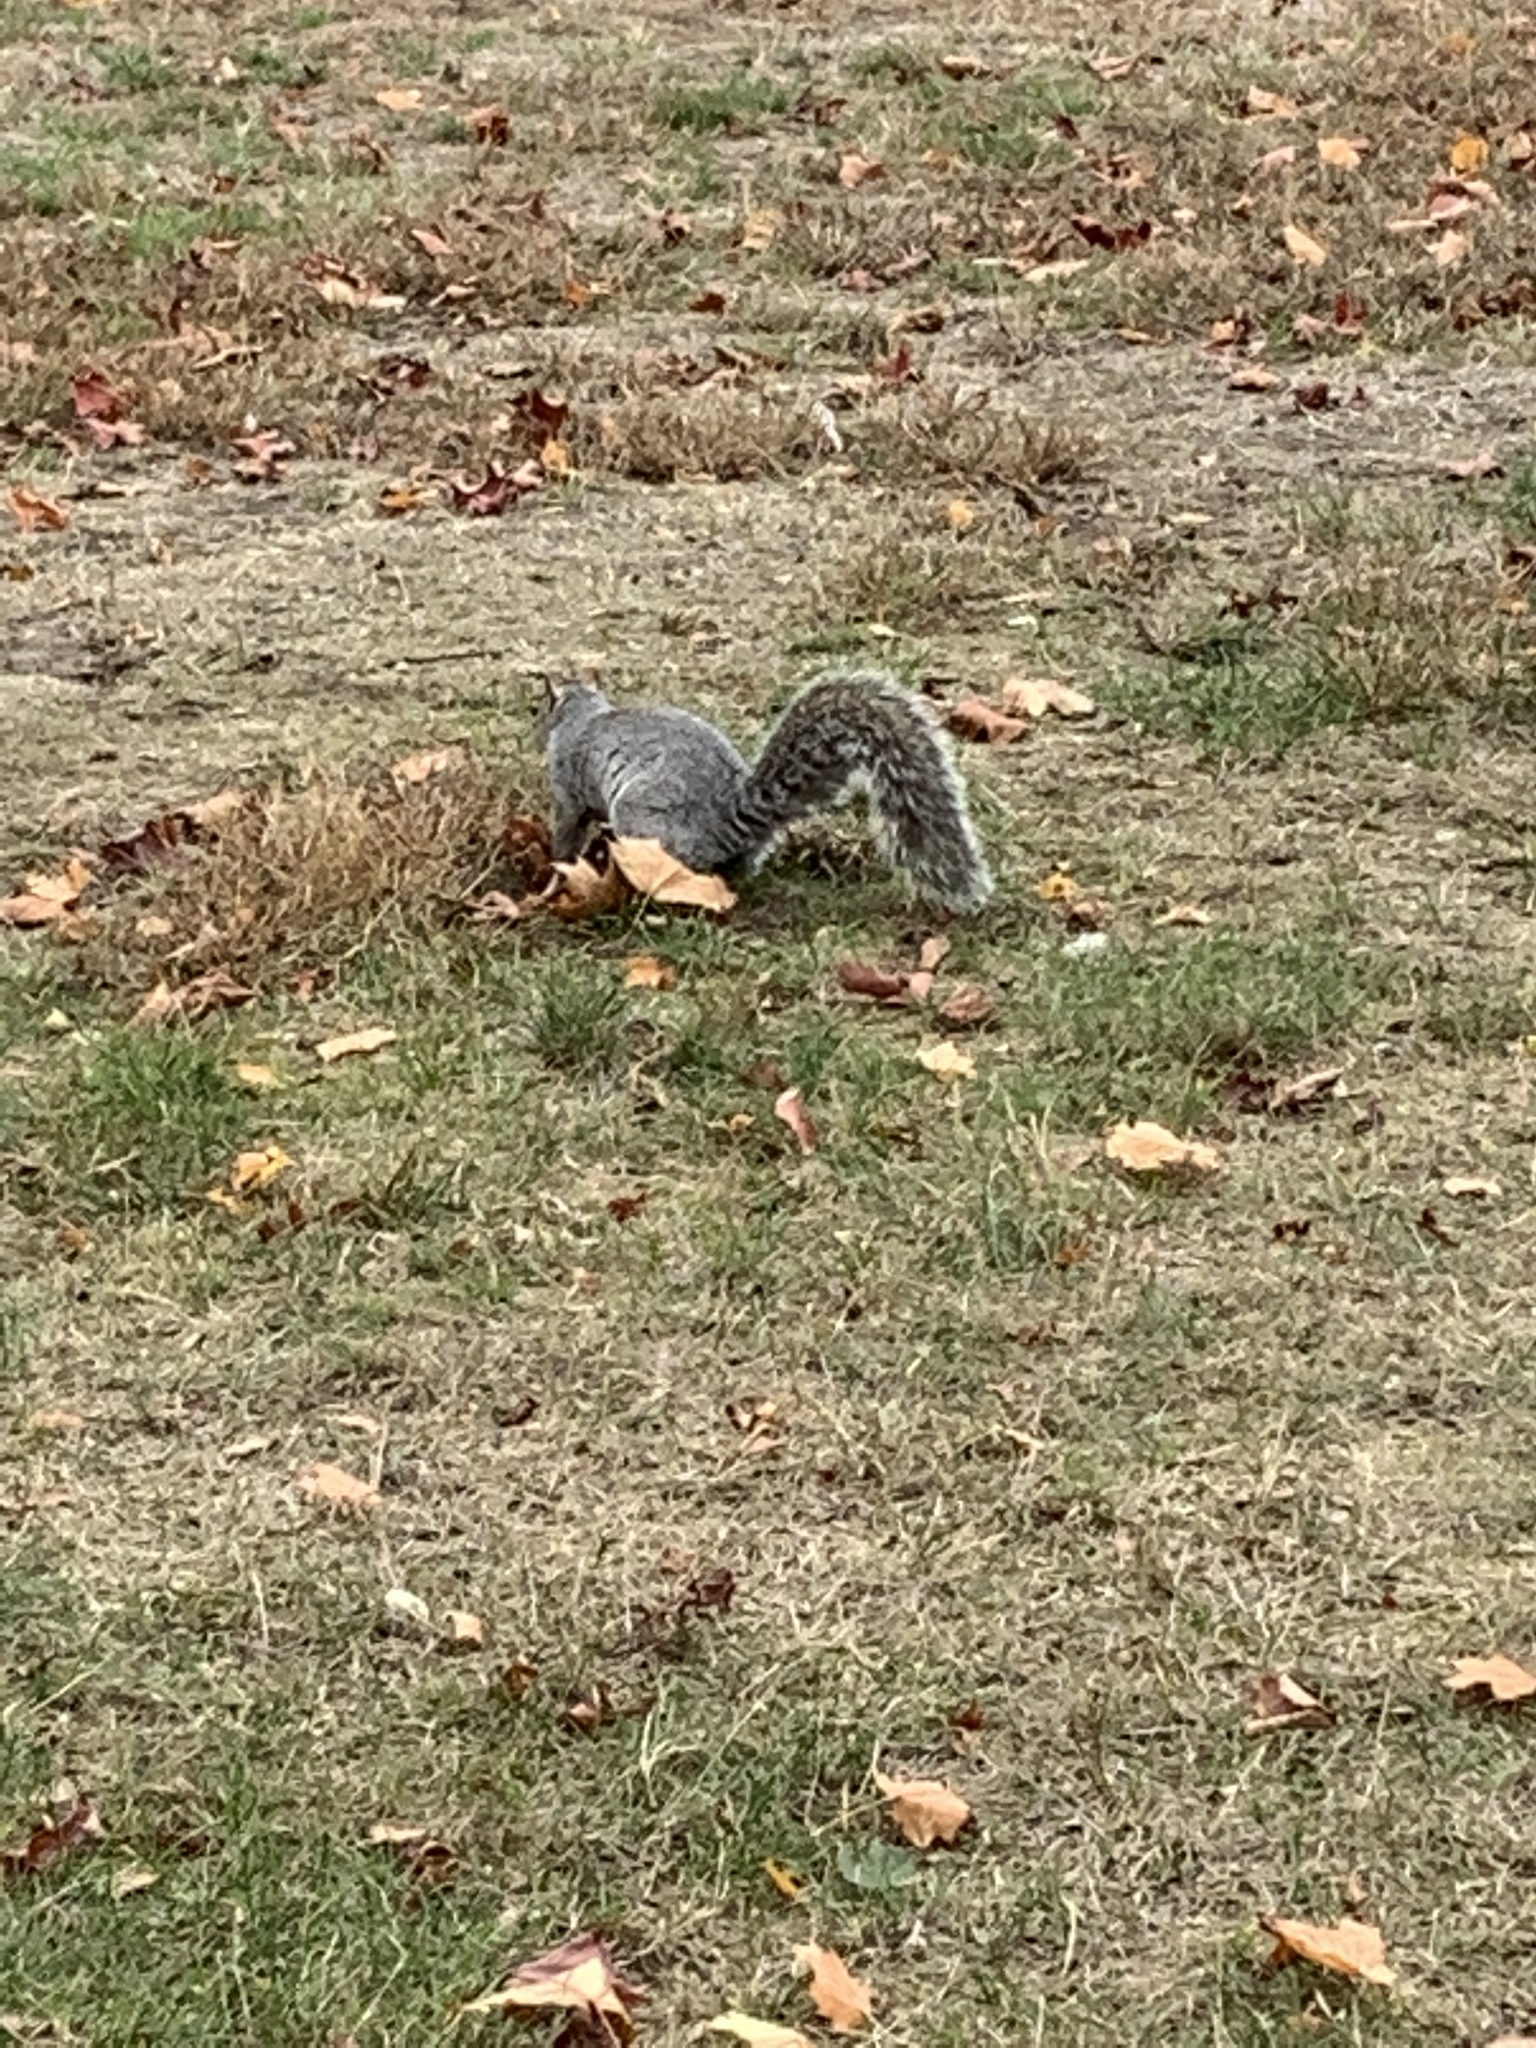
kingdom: Animalia
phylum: Chordata
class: Mammalia
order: Rodentia
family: Sciuridae
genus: Sciurus
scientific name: Sciurus carolinensis
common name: Eastern gray squirrel
